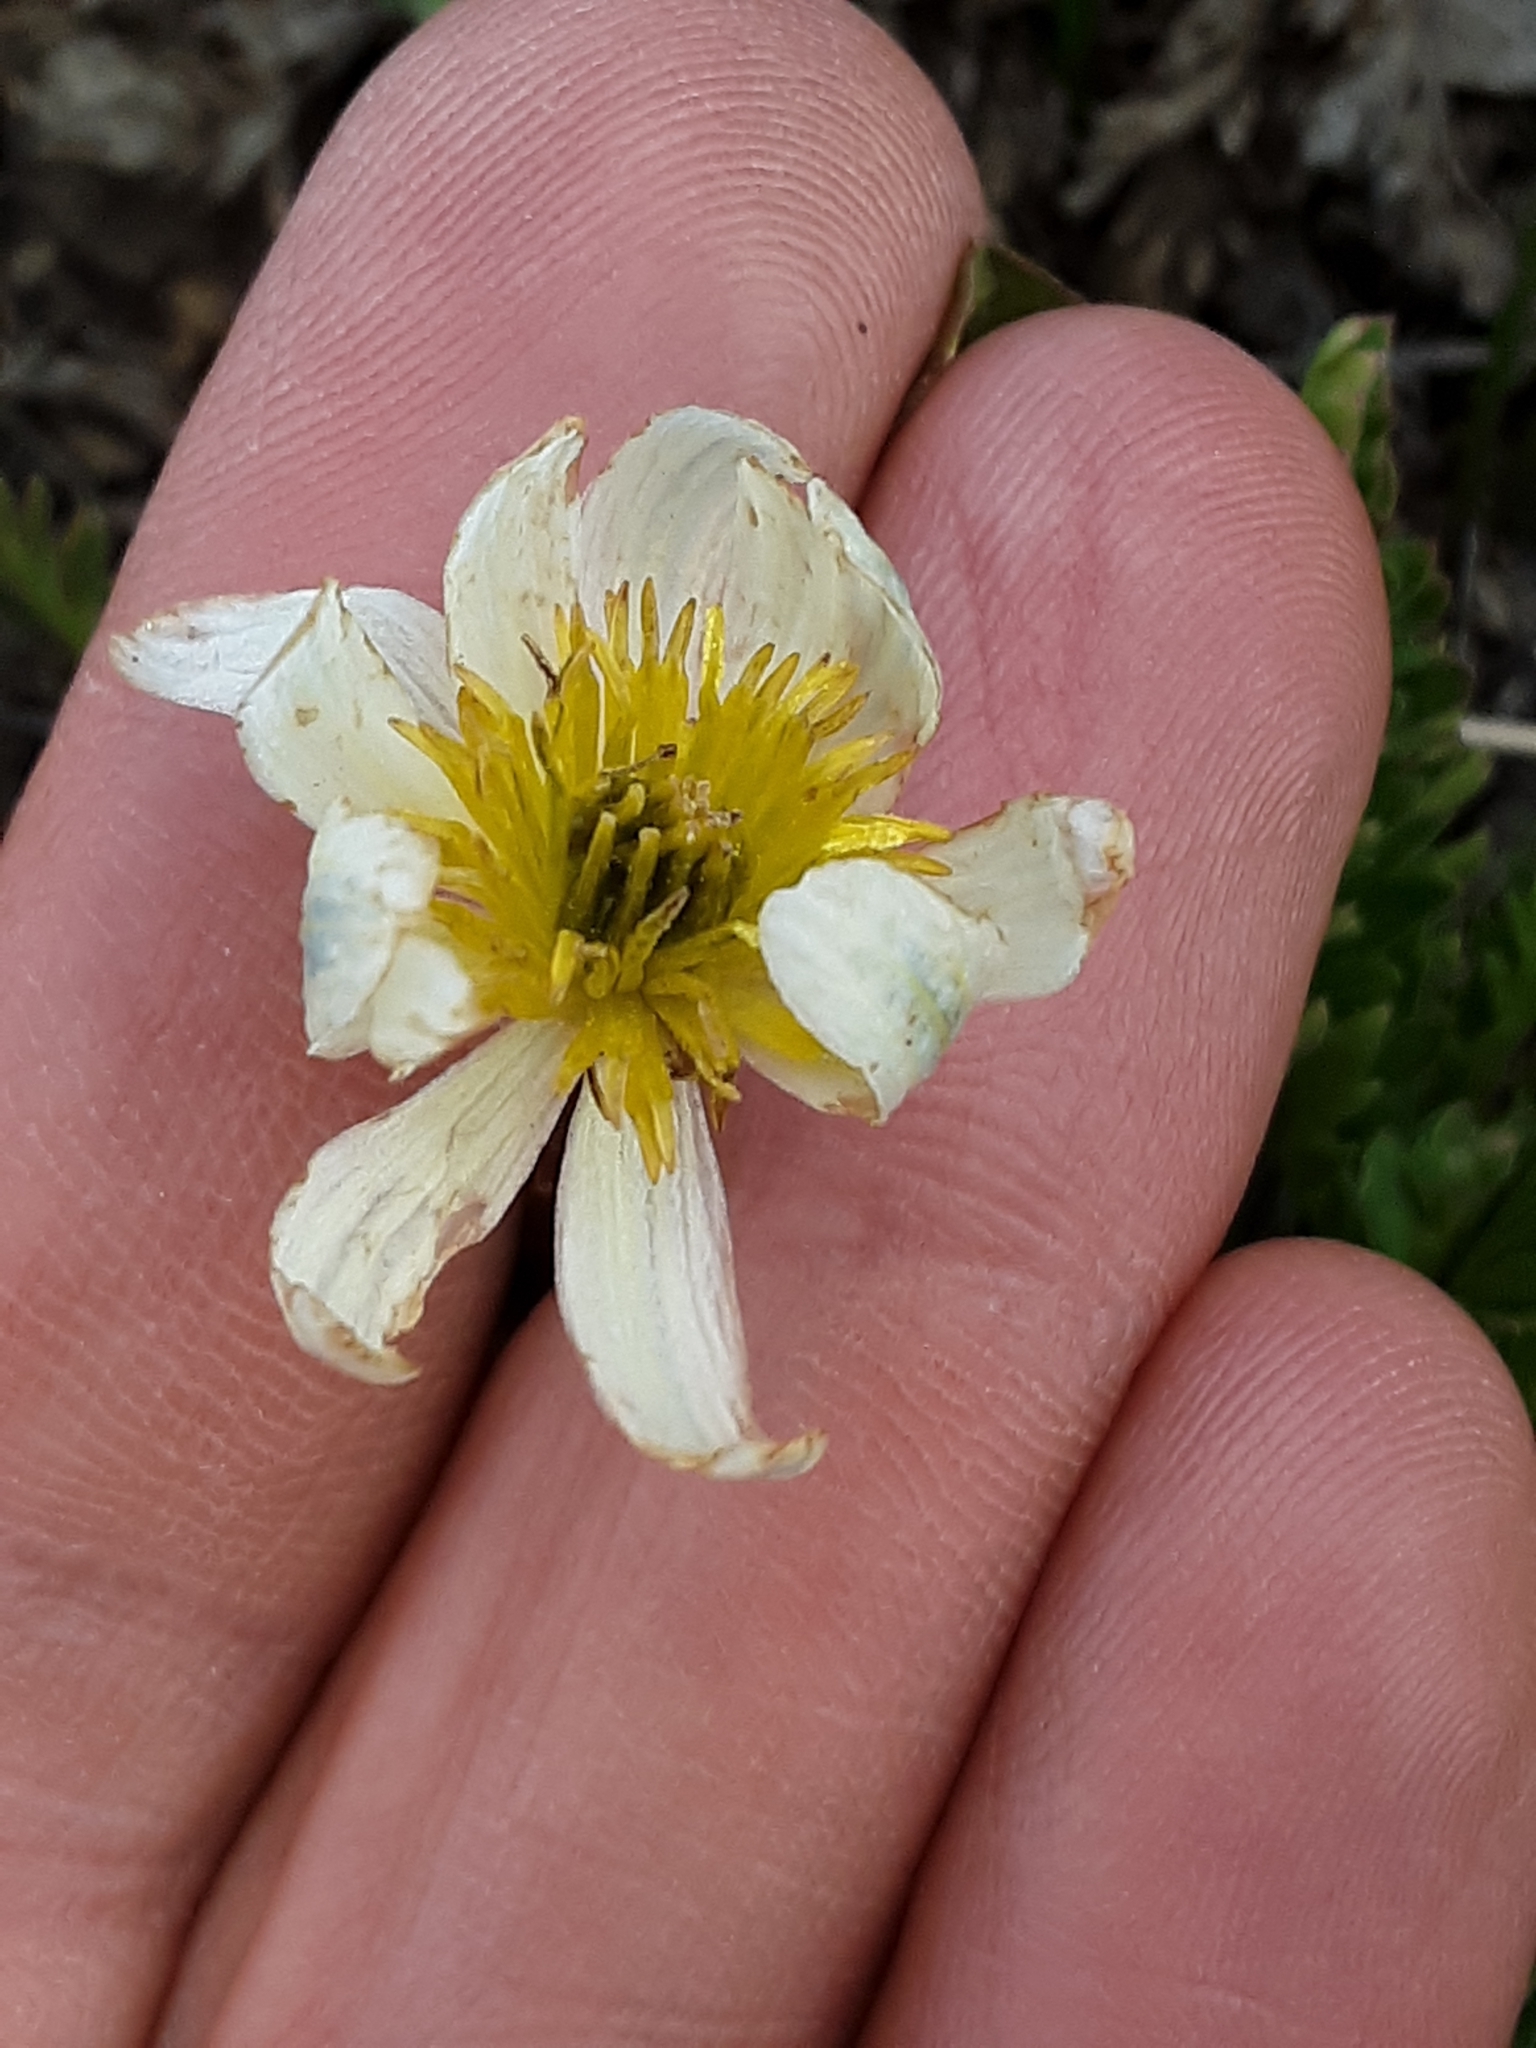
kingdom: Plantae
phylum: Tracheophyta
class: Magnoliopsida
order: Ranunculales
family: Ranunculaceae
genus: Caltha
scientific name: Caltha leptosepala
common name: Elkslip
